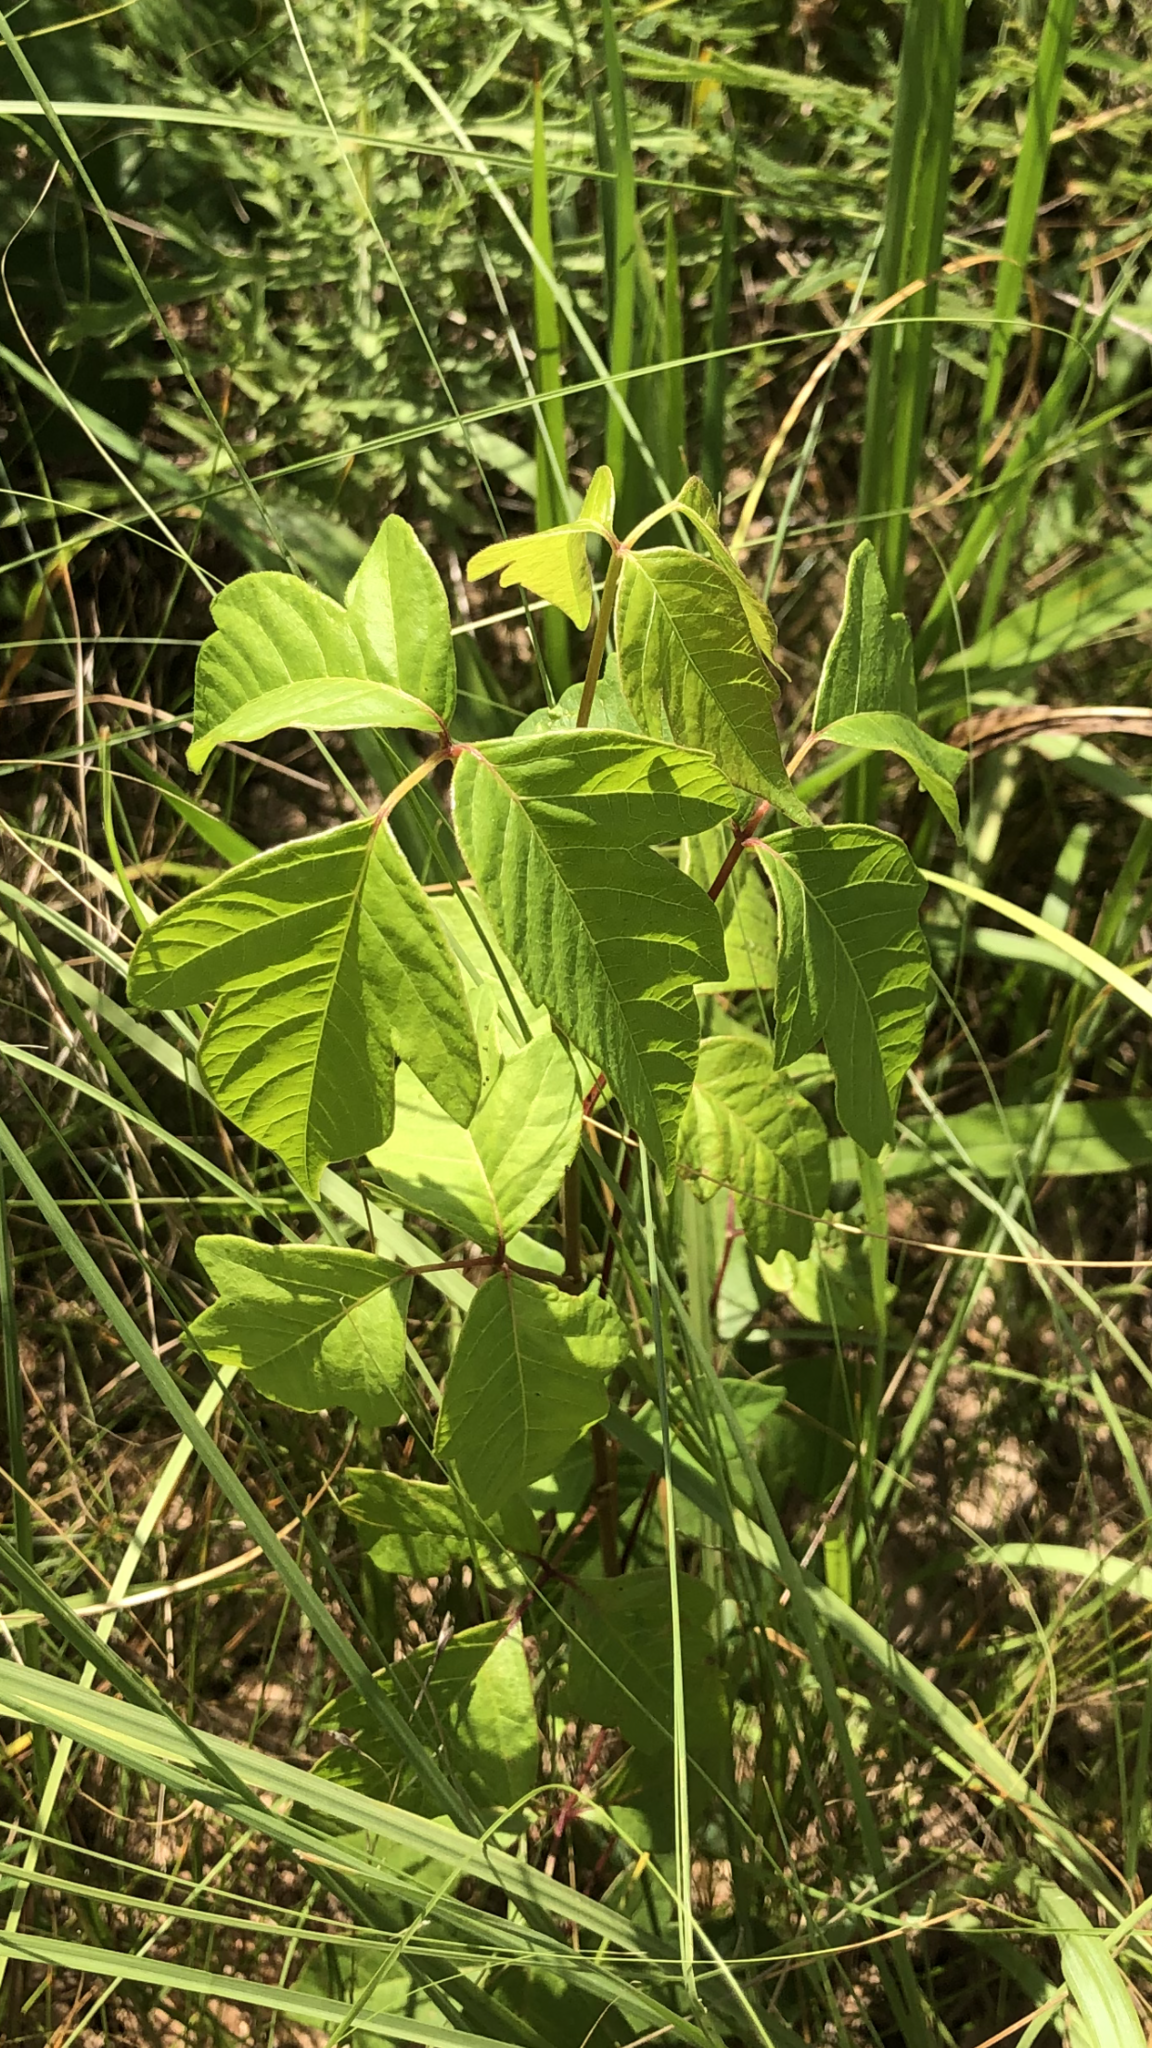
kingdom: Plantae
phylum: Tracheophyta
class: Magnoliopsida
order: Sapindales
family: Anacardiaceae
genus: Toxicodendron
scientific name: Toxicodendron radicans
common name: Poison ivy
